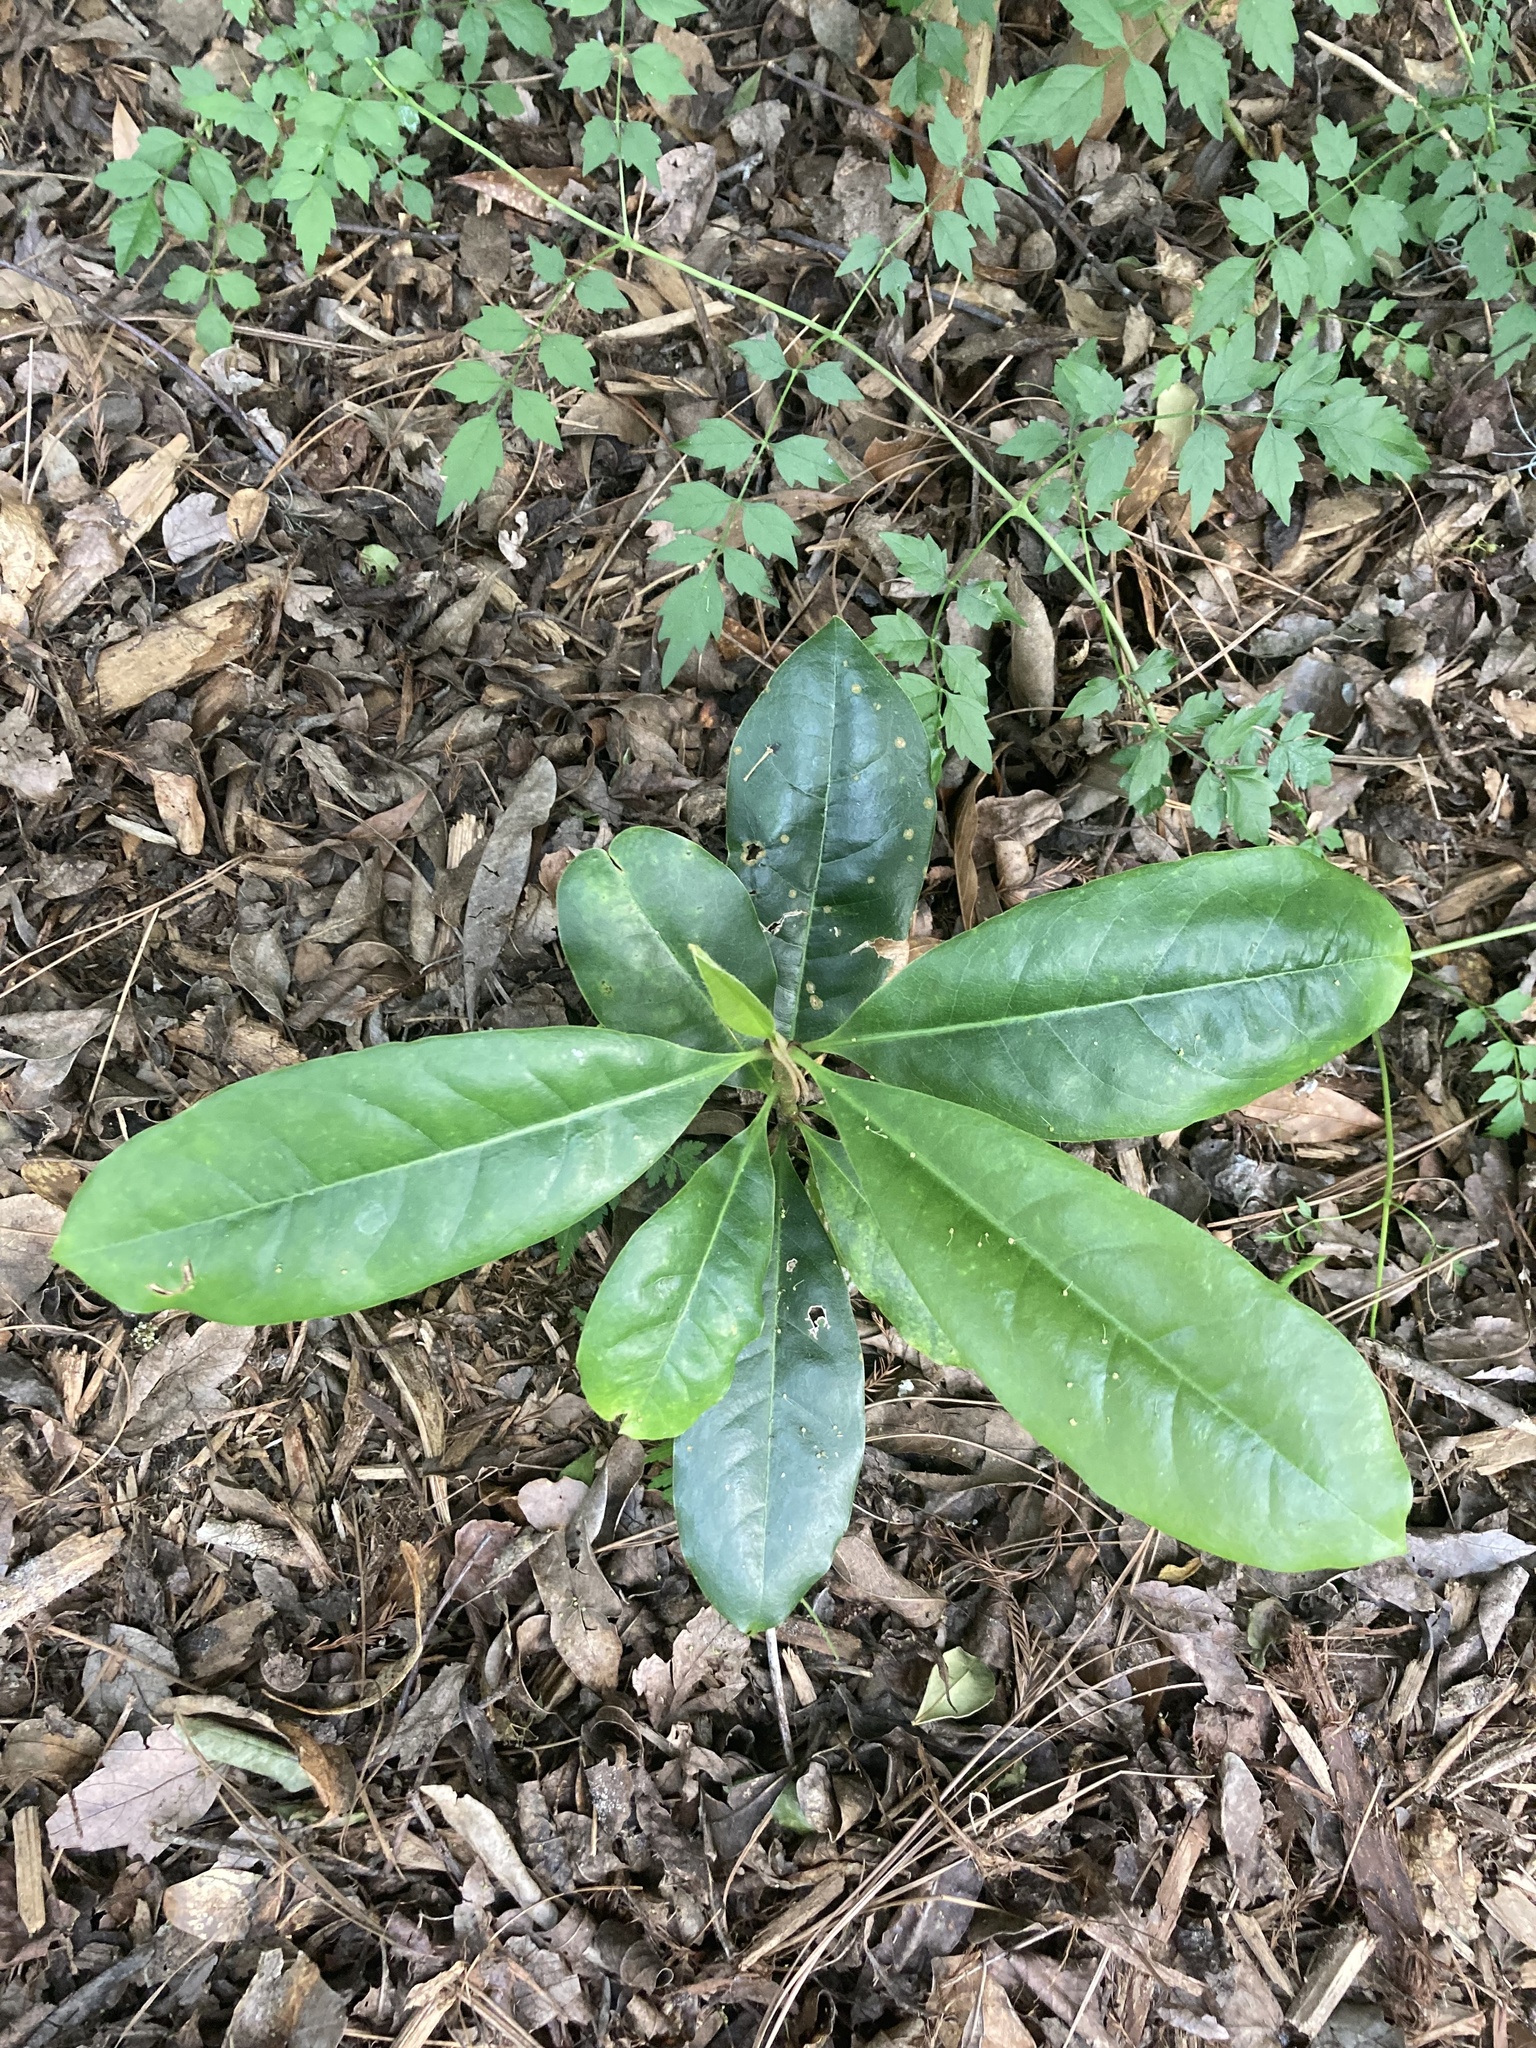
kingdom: Plantae
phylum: Tracheophyta
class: Magnoliopsida
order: Magnoliales
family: Magnoliaceae
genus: Magnolia
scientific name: Magnolia grandiflora
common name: Southern magnolia
